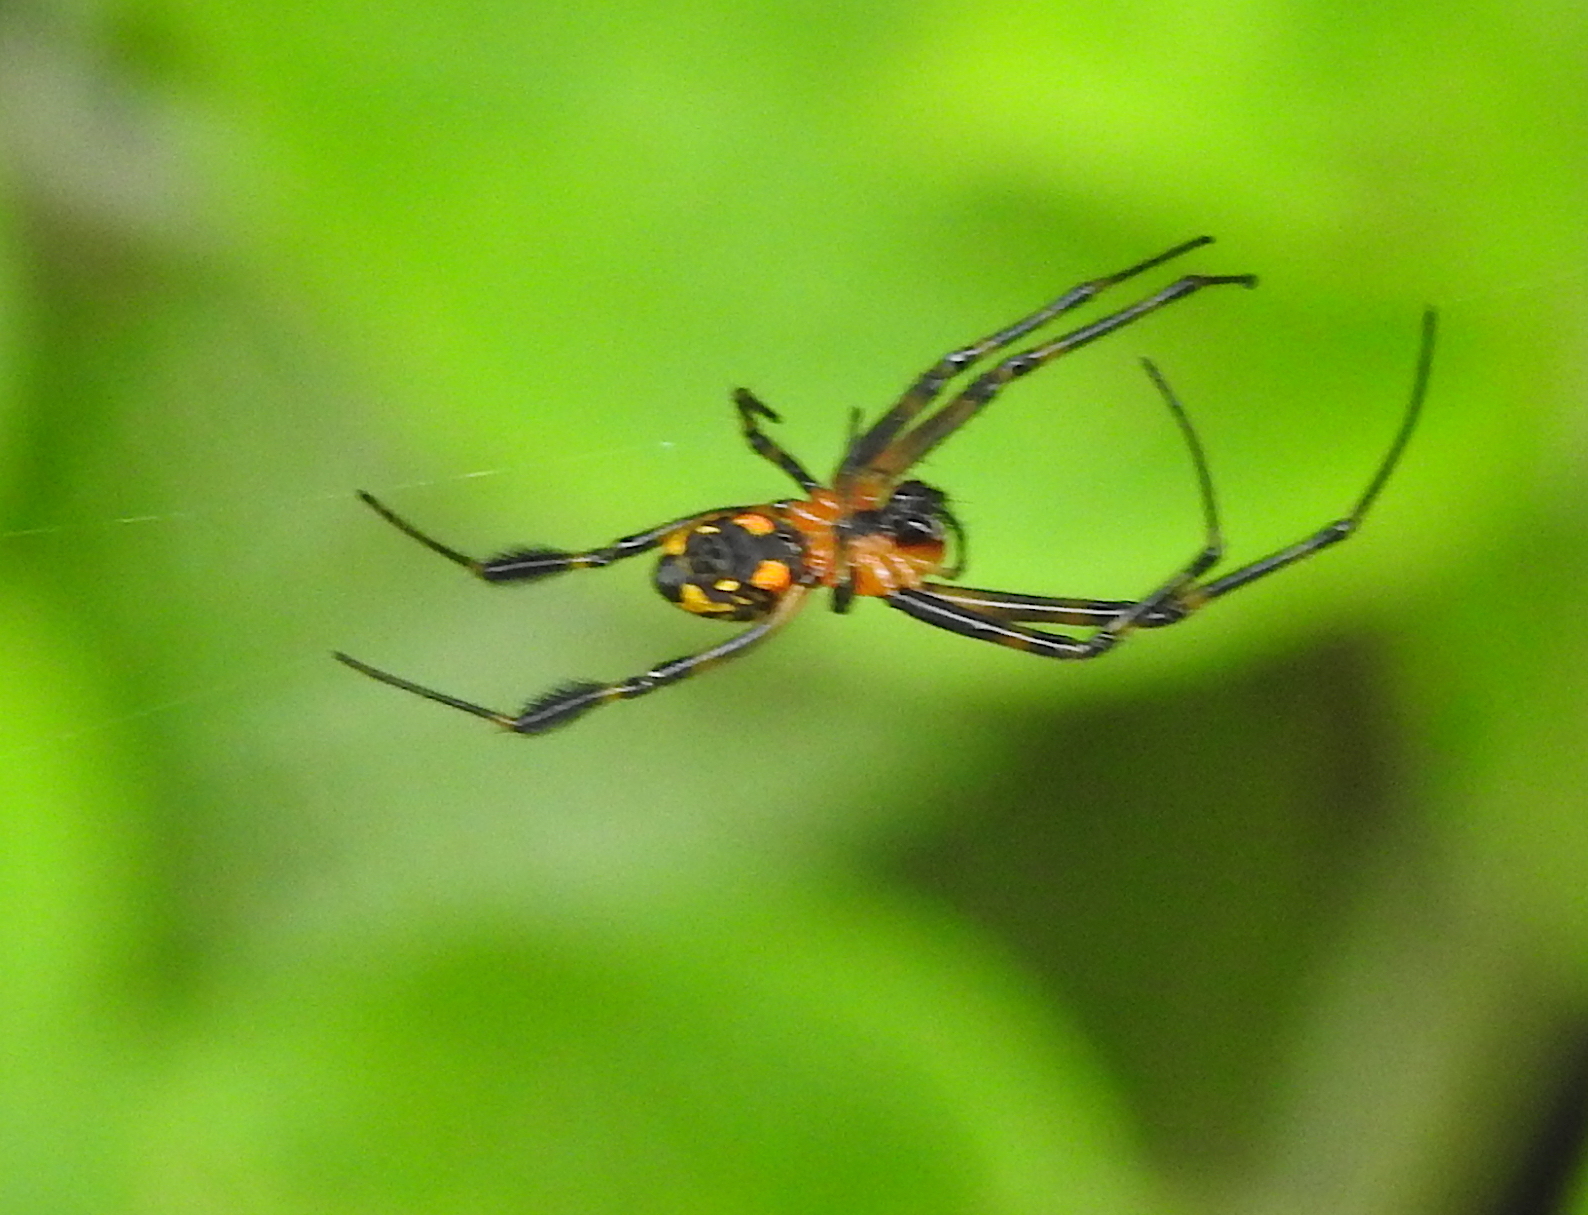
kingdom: Animalia
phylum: Arthropoda
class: Arachnida
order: Araneae
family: Tetragnathidae
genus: Leucauge
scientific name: Leucauge fastigata
